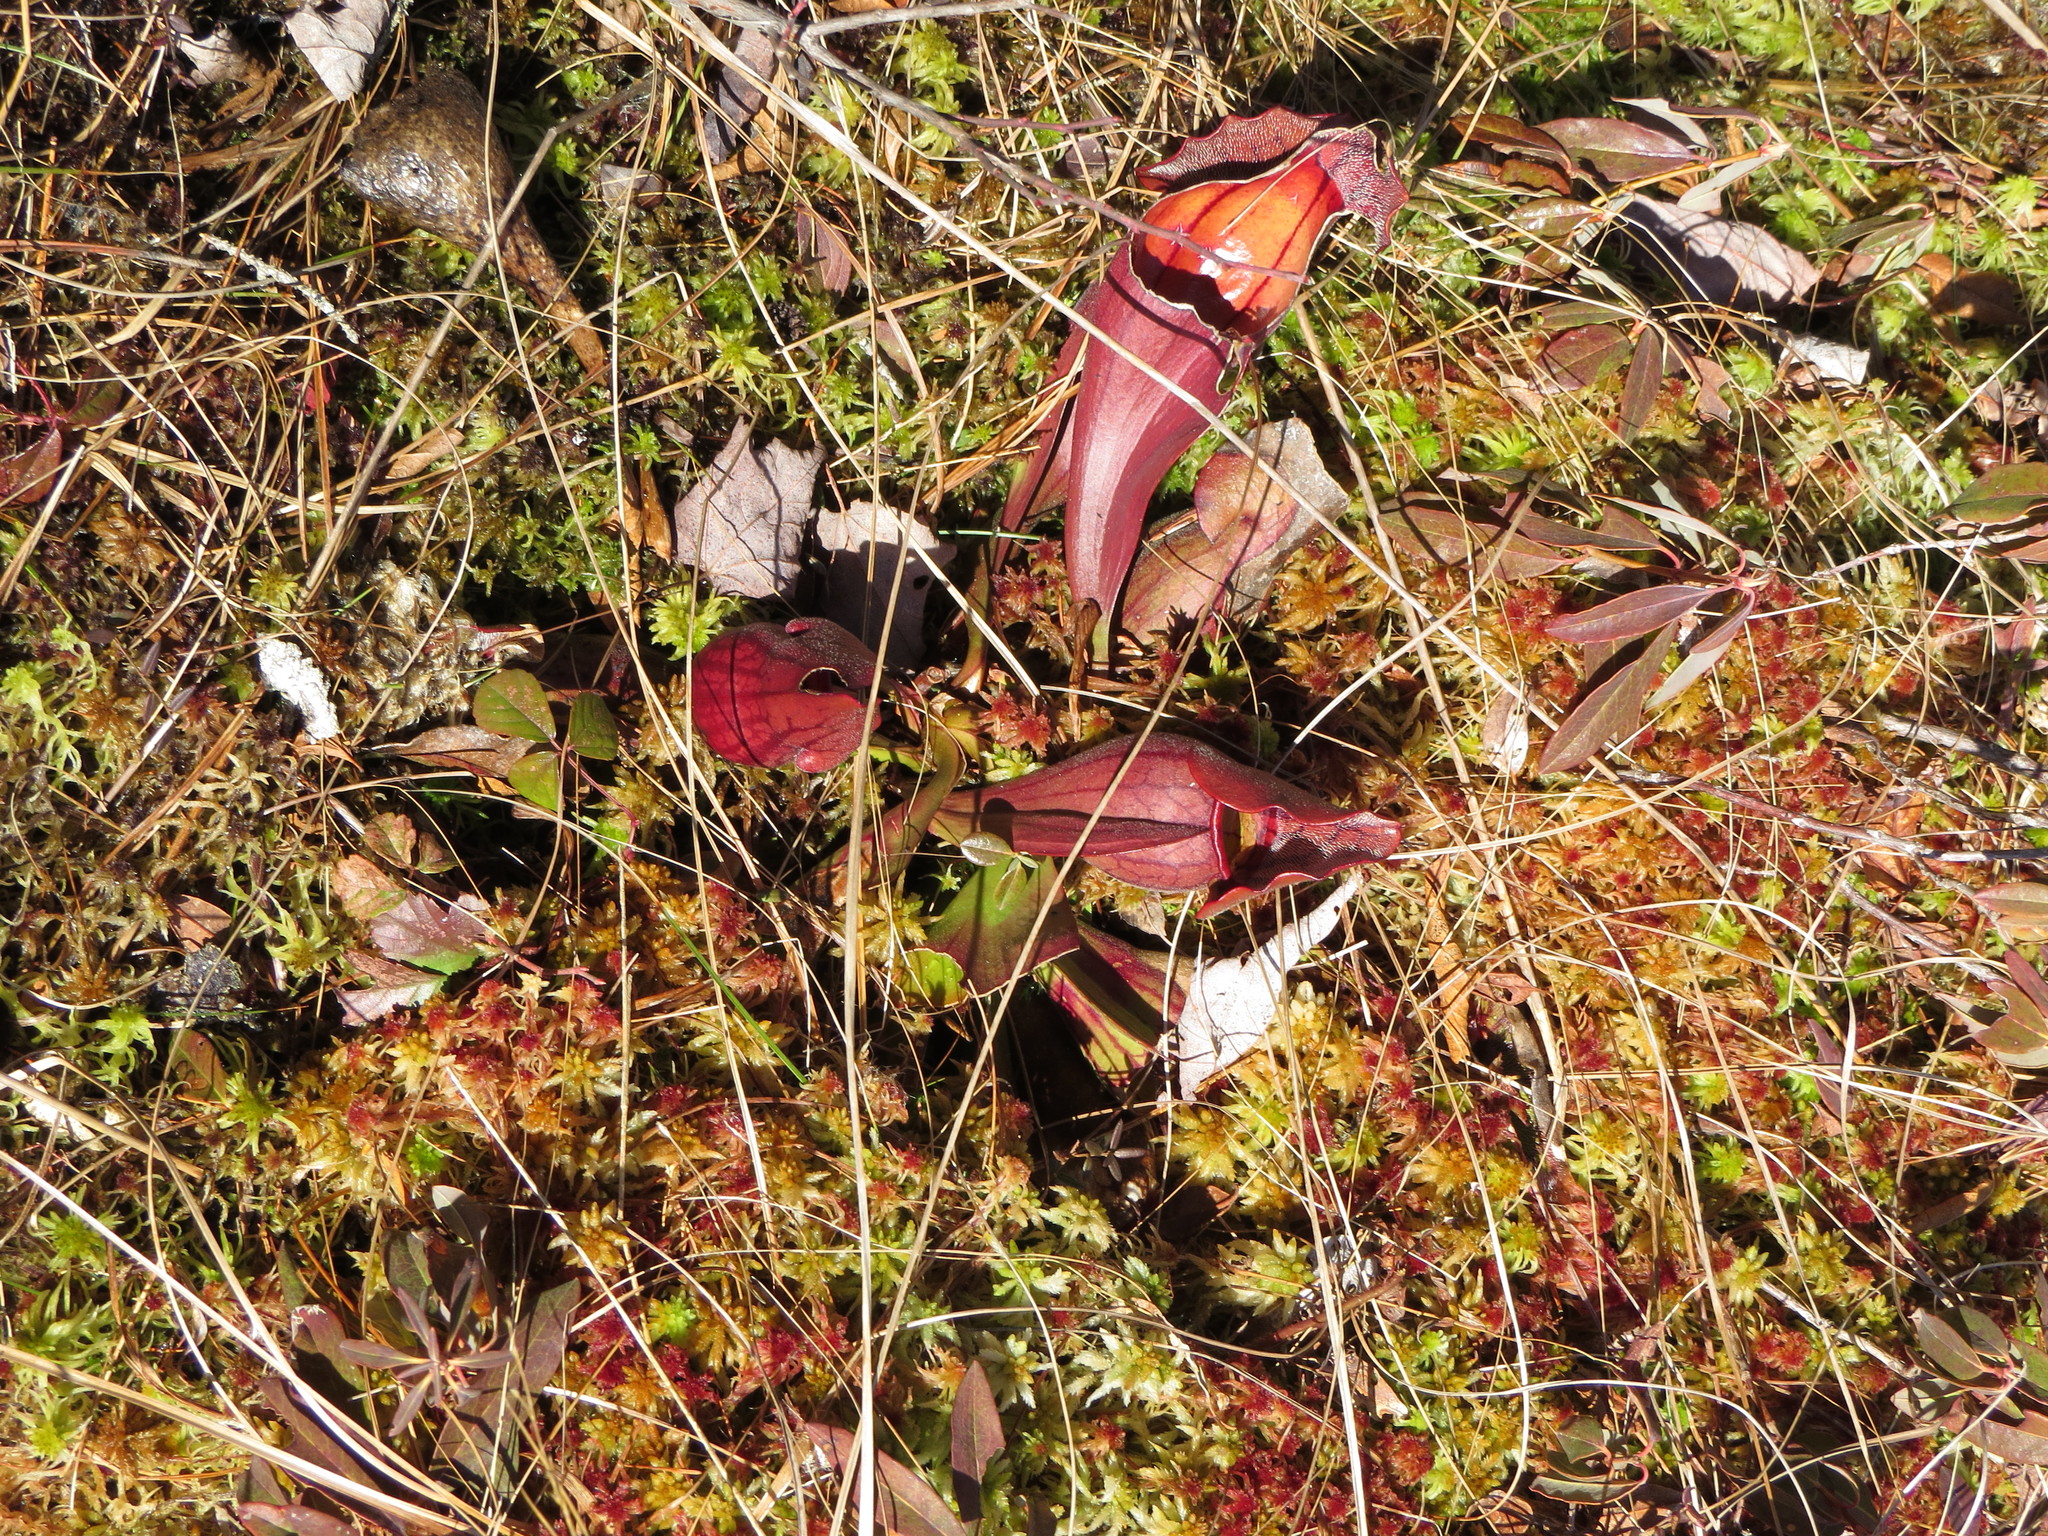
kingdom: Plantae
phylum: Tracheophyta
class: Magnoliopsida
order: Ericales
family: Sarraceniaceae
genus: Sarracenia
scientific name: Sarracenia purpurea
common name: Pitcherplant
